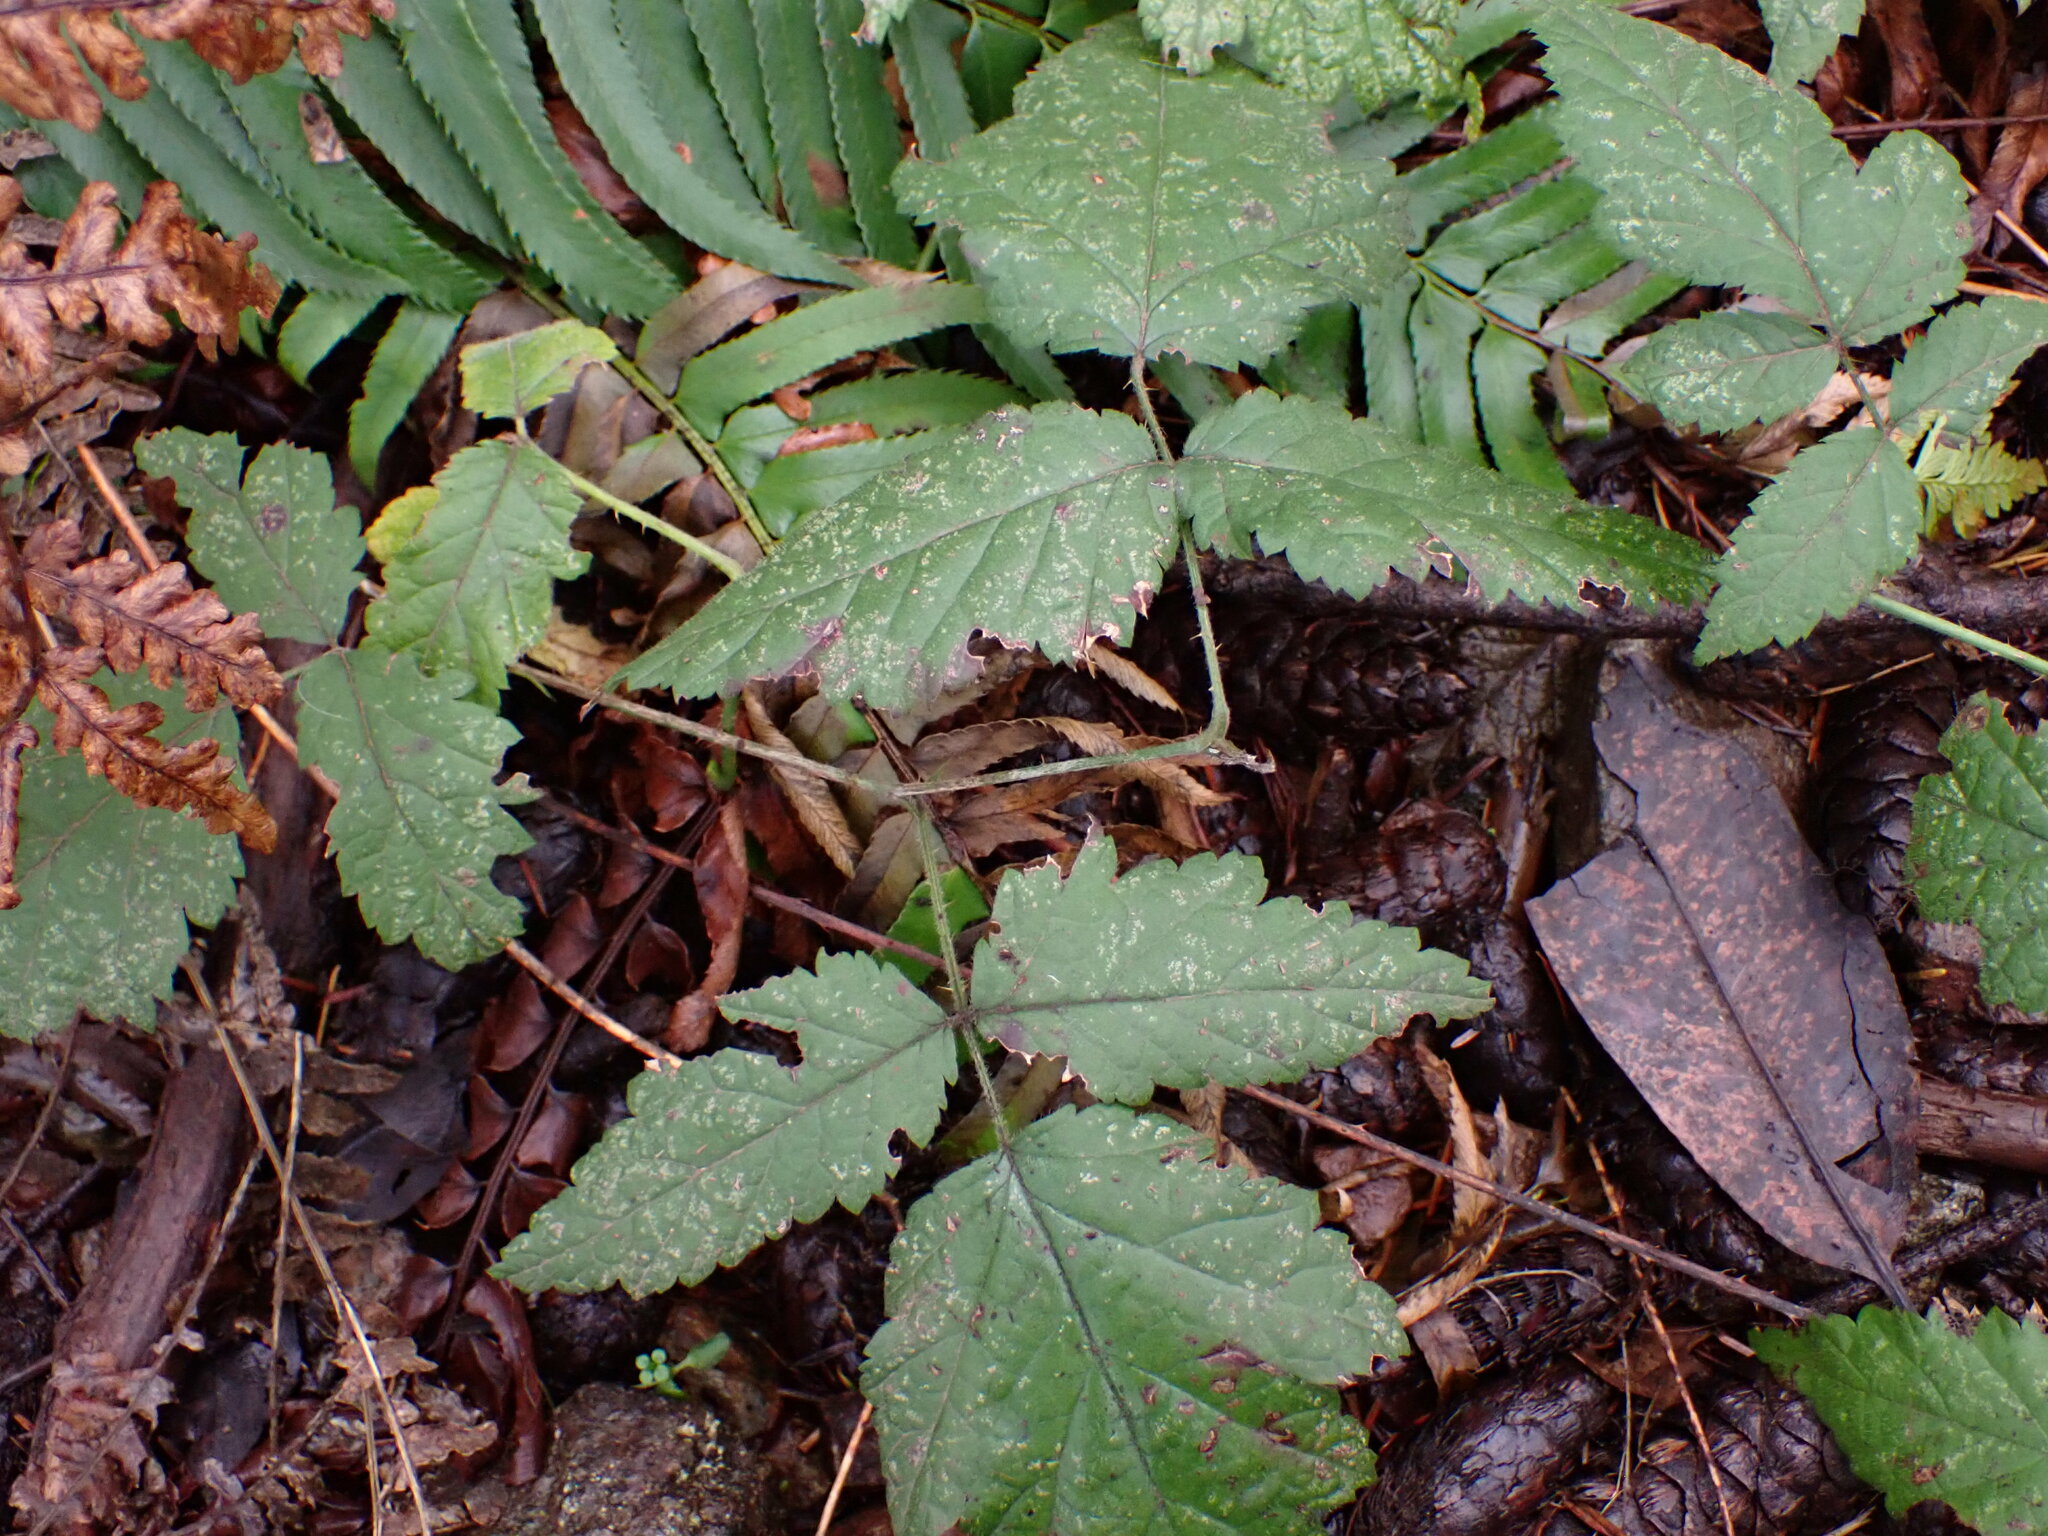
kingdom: Plantae
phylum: Tracheophyta
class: Magnoliopsida
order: Rosales
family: Rosaceae
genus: Rubus
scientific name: Rubus ursinus
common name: Pacific blackberry
